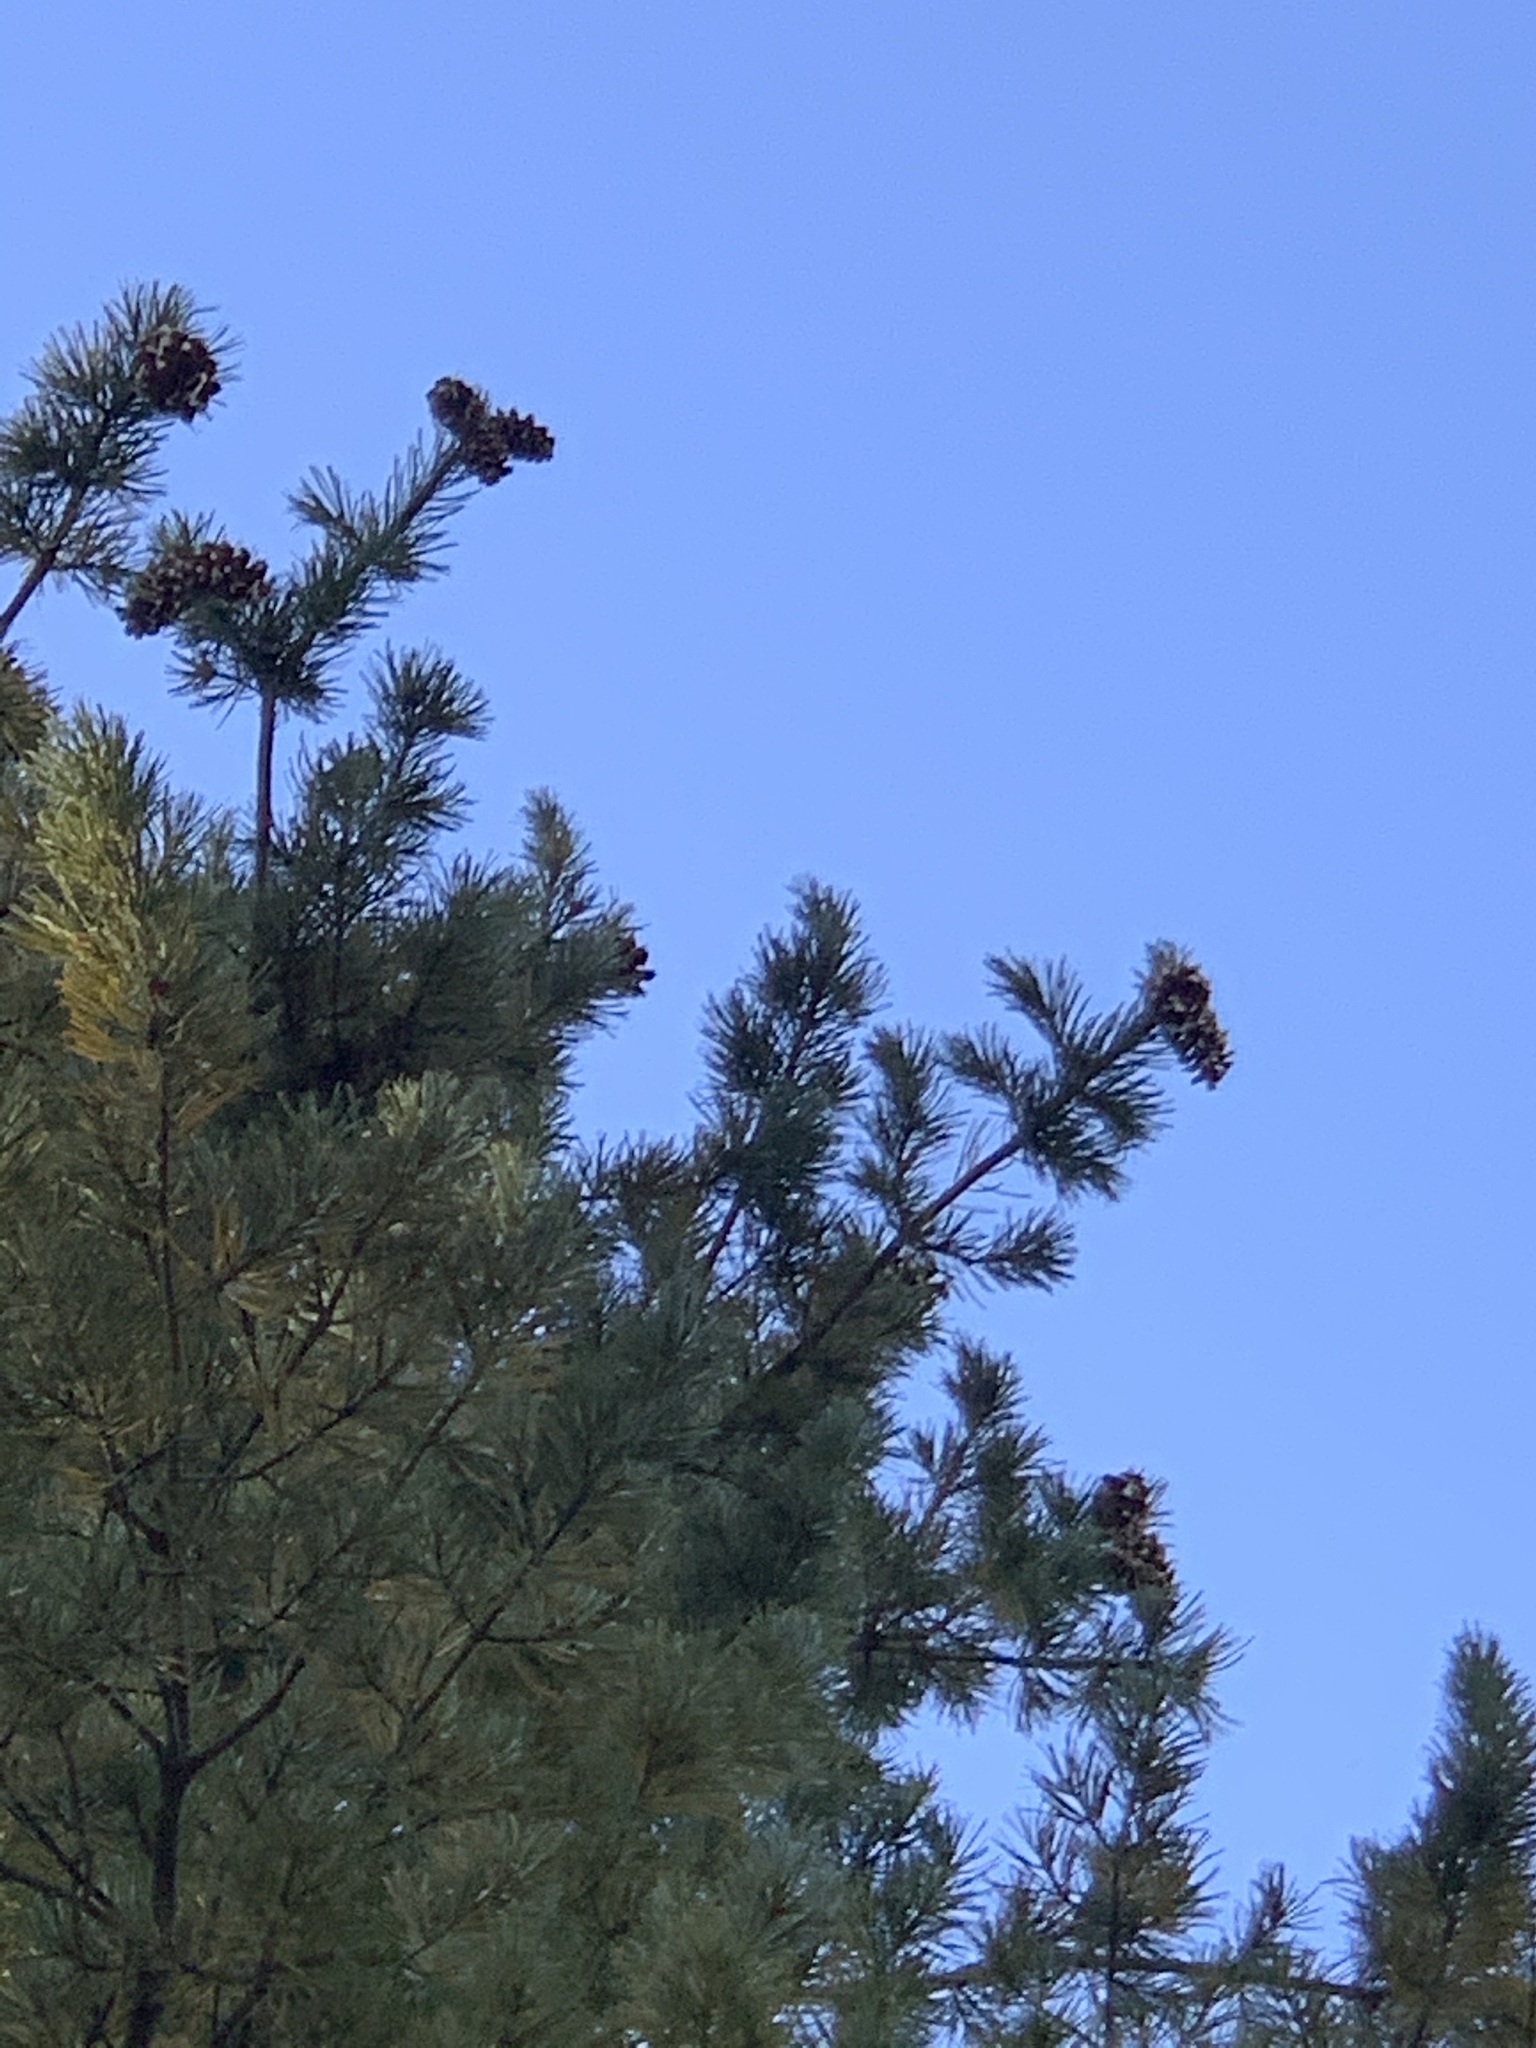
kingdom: Plantae
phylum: Tracheophyta
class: Pinopsida
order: Pinales
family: Pinaceae
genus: Pinus
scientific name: Pinus strobiformis
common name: Southwestern white pine
